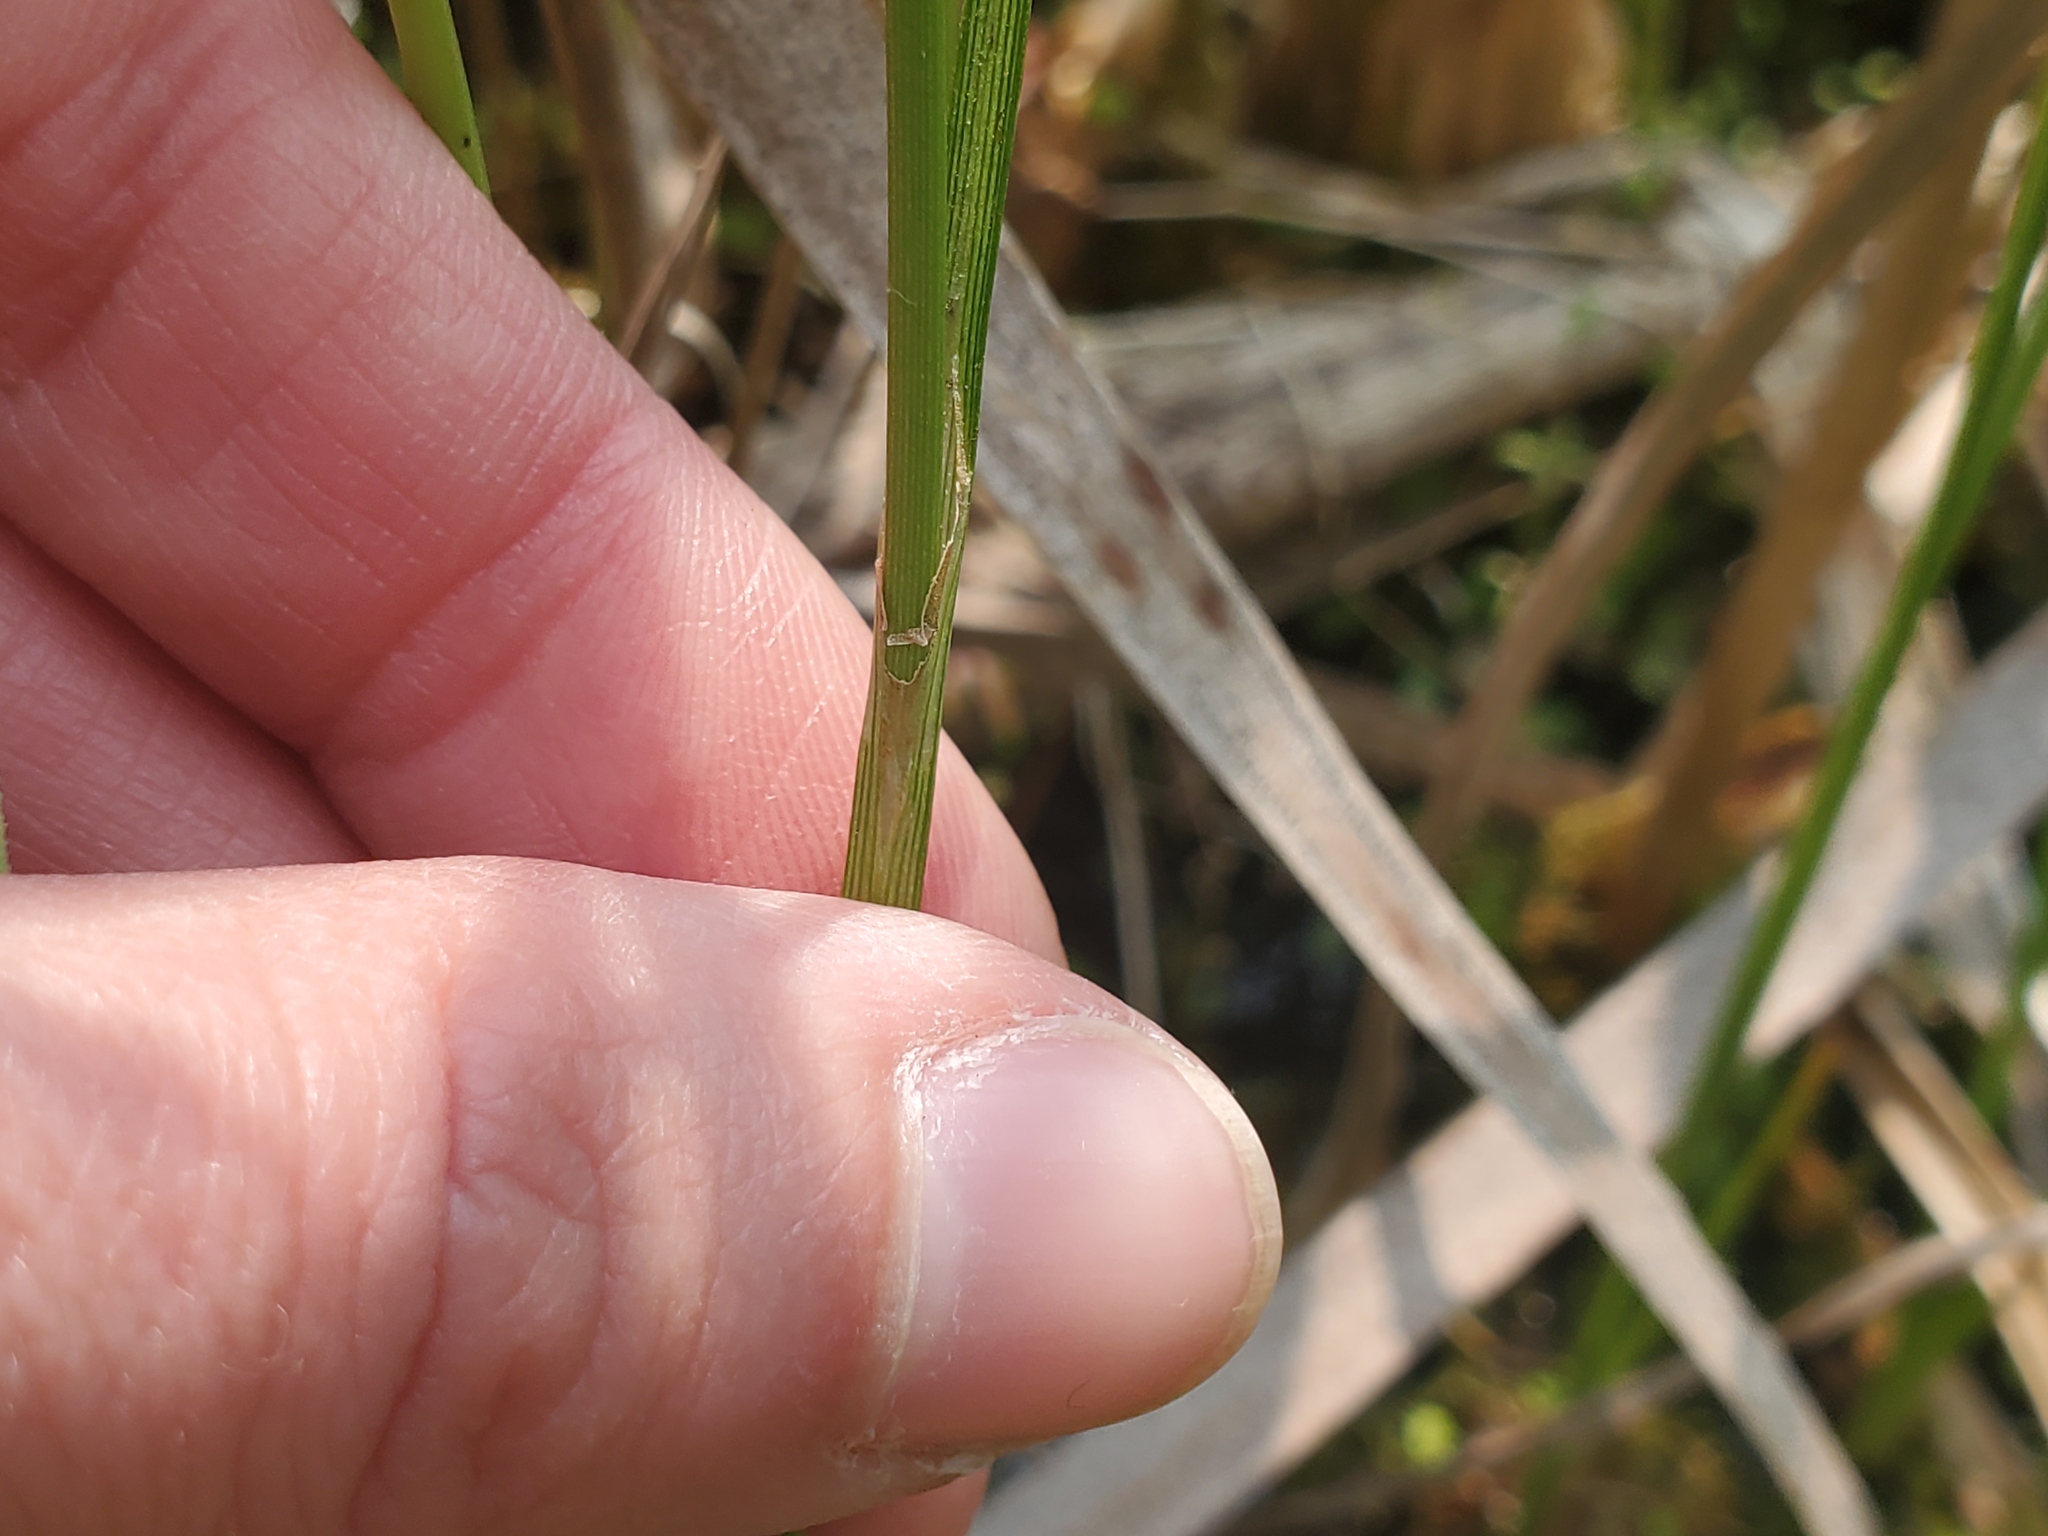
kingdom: Plantae
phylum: Tracheophyta
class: Liliopsida
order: Poales
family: Cyperaceae
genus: Eriophorum
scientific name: Eriophorum gracile
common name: Slender cottongrass
